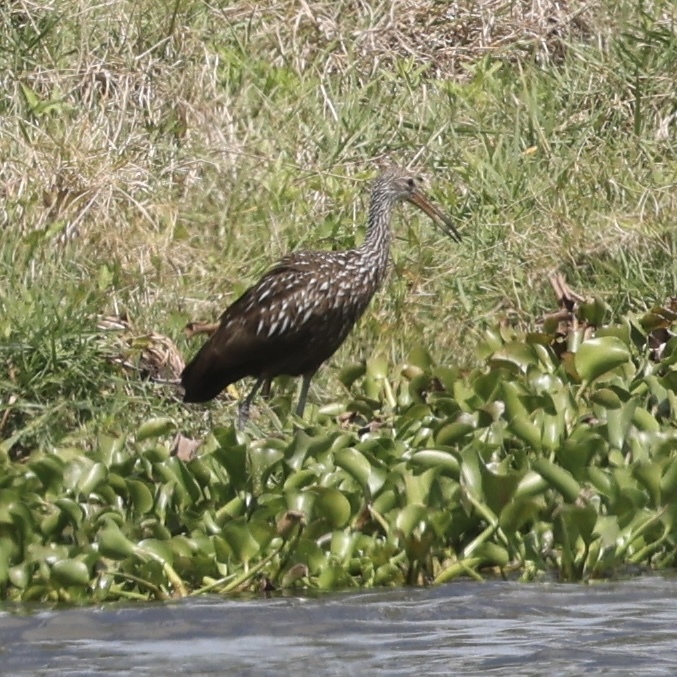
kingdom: Animalia
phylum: Chordata
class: Aves
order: Gruiformes
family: Aramidae
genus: Aramus
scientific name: Aramus guarauna
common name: Limpkin
